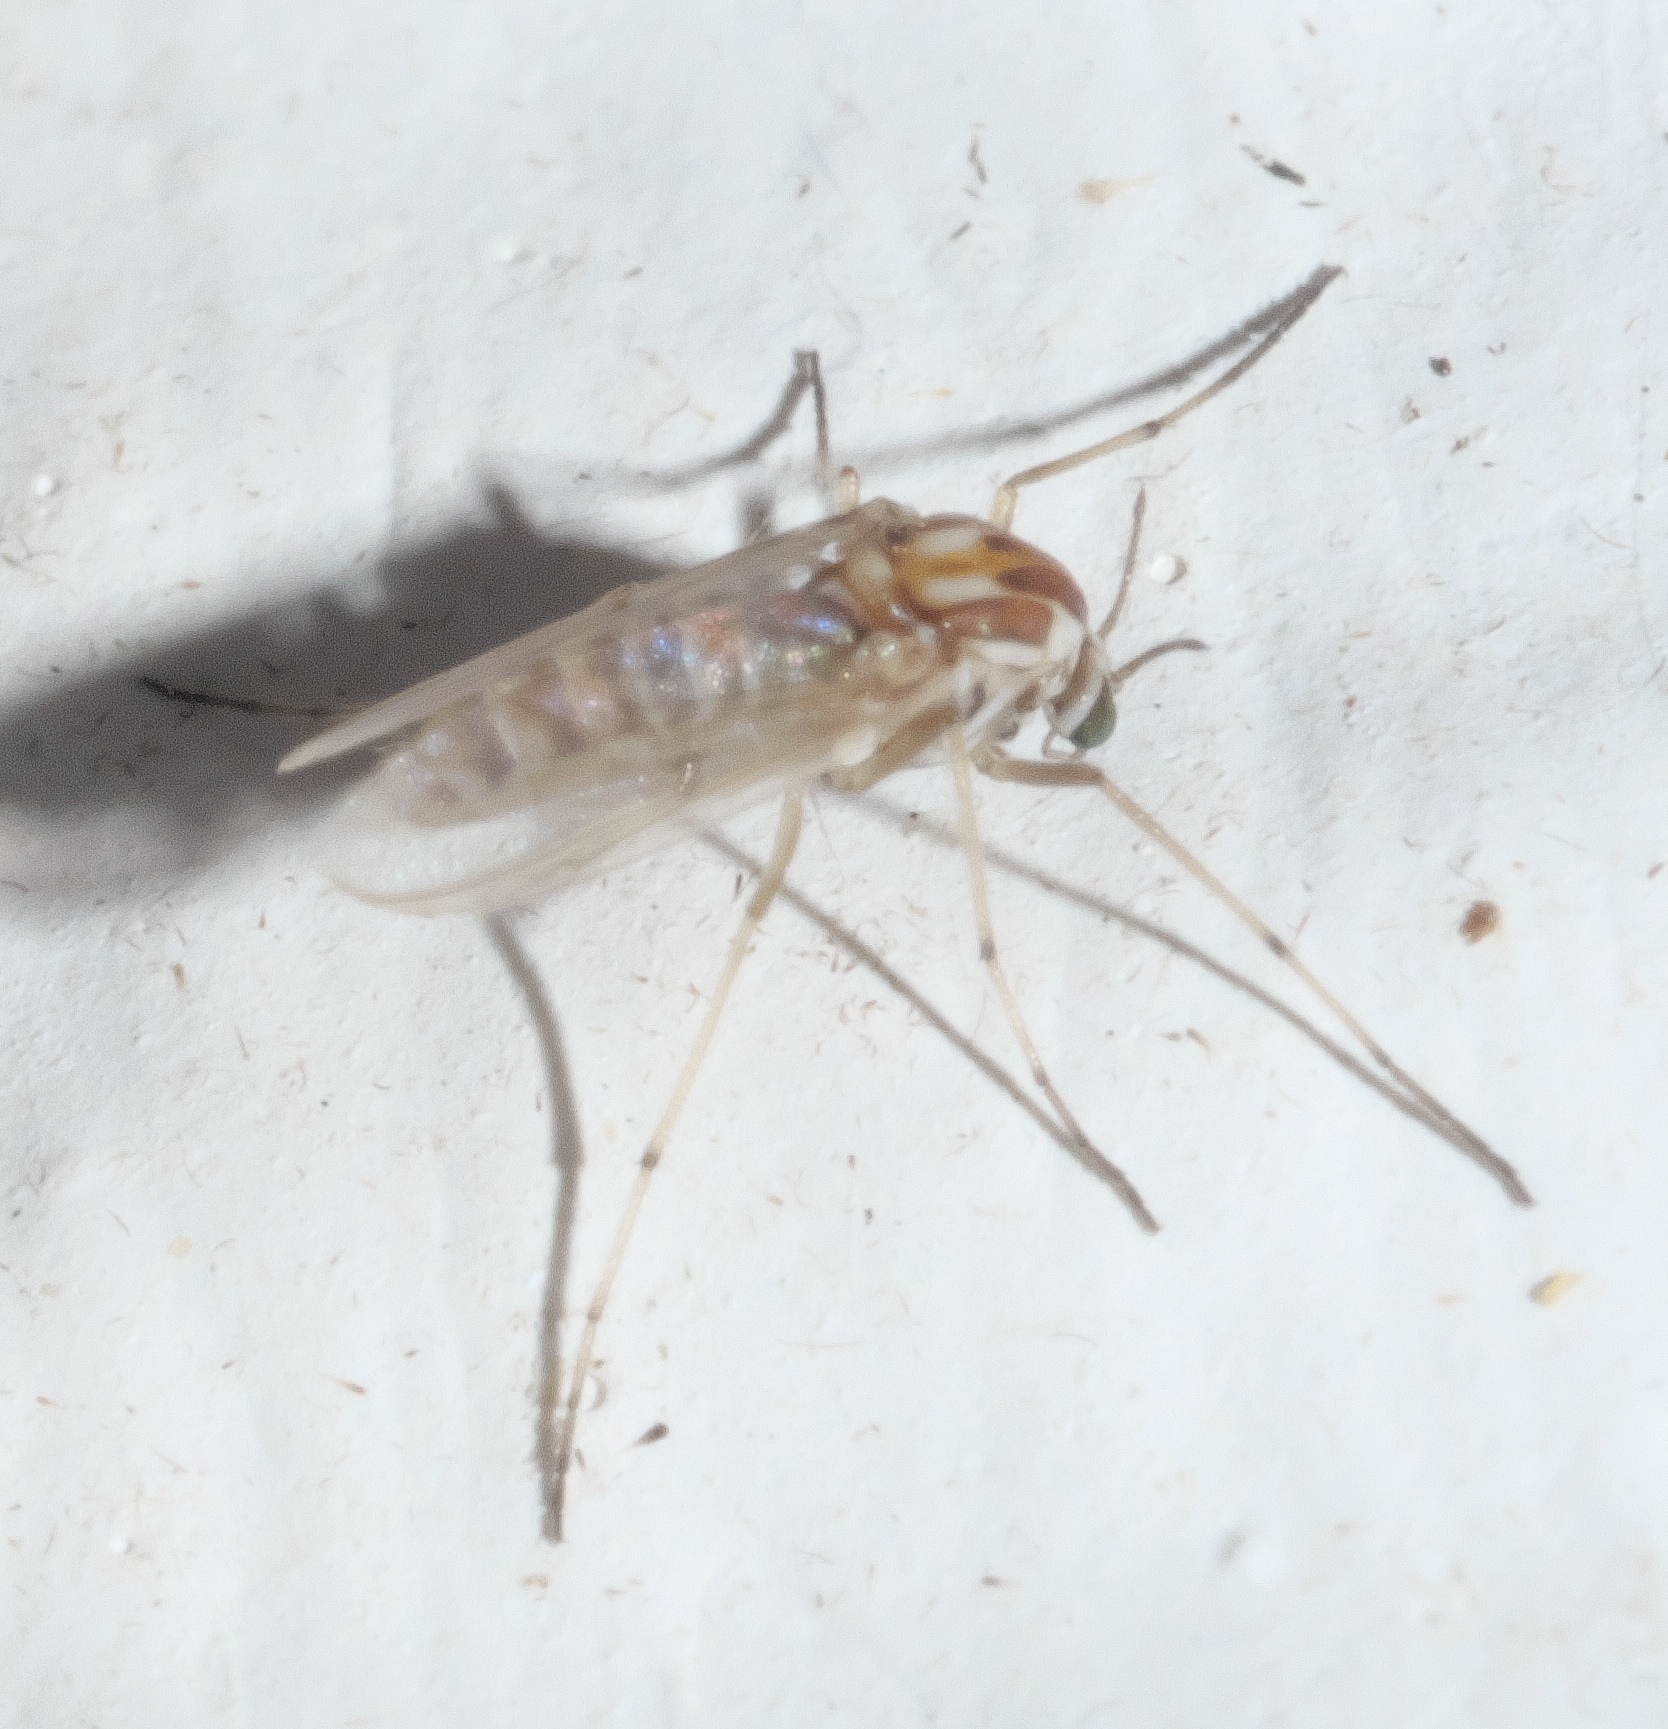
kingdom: Animalia
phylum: Arthropoda
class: Insecta
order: Diptera
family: Chironomidae
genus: Procladius
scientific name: Procladius bellus
